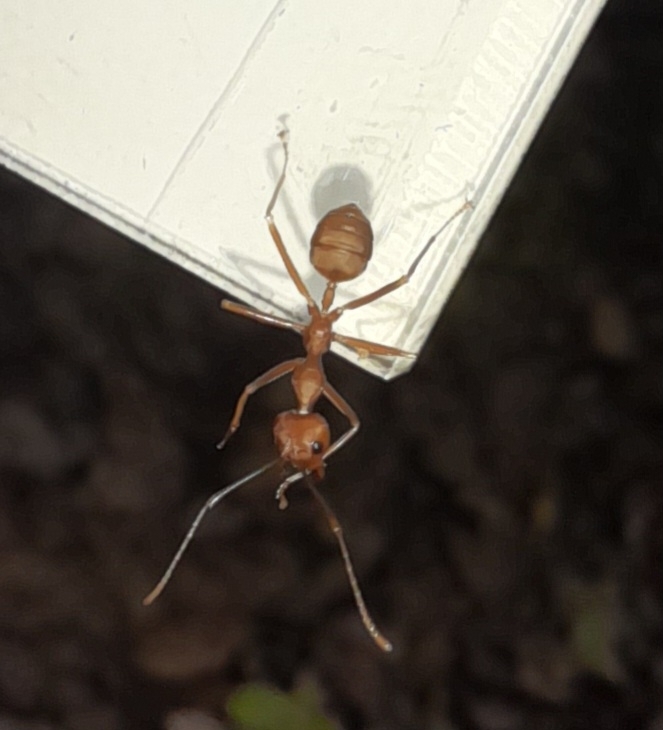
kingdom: Animalia
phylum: Arthropoda
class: Insecta
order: Hymenoptera
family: Formicidae
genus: Oecophylla
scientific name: Oecophylla smaragdina
